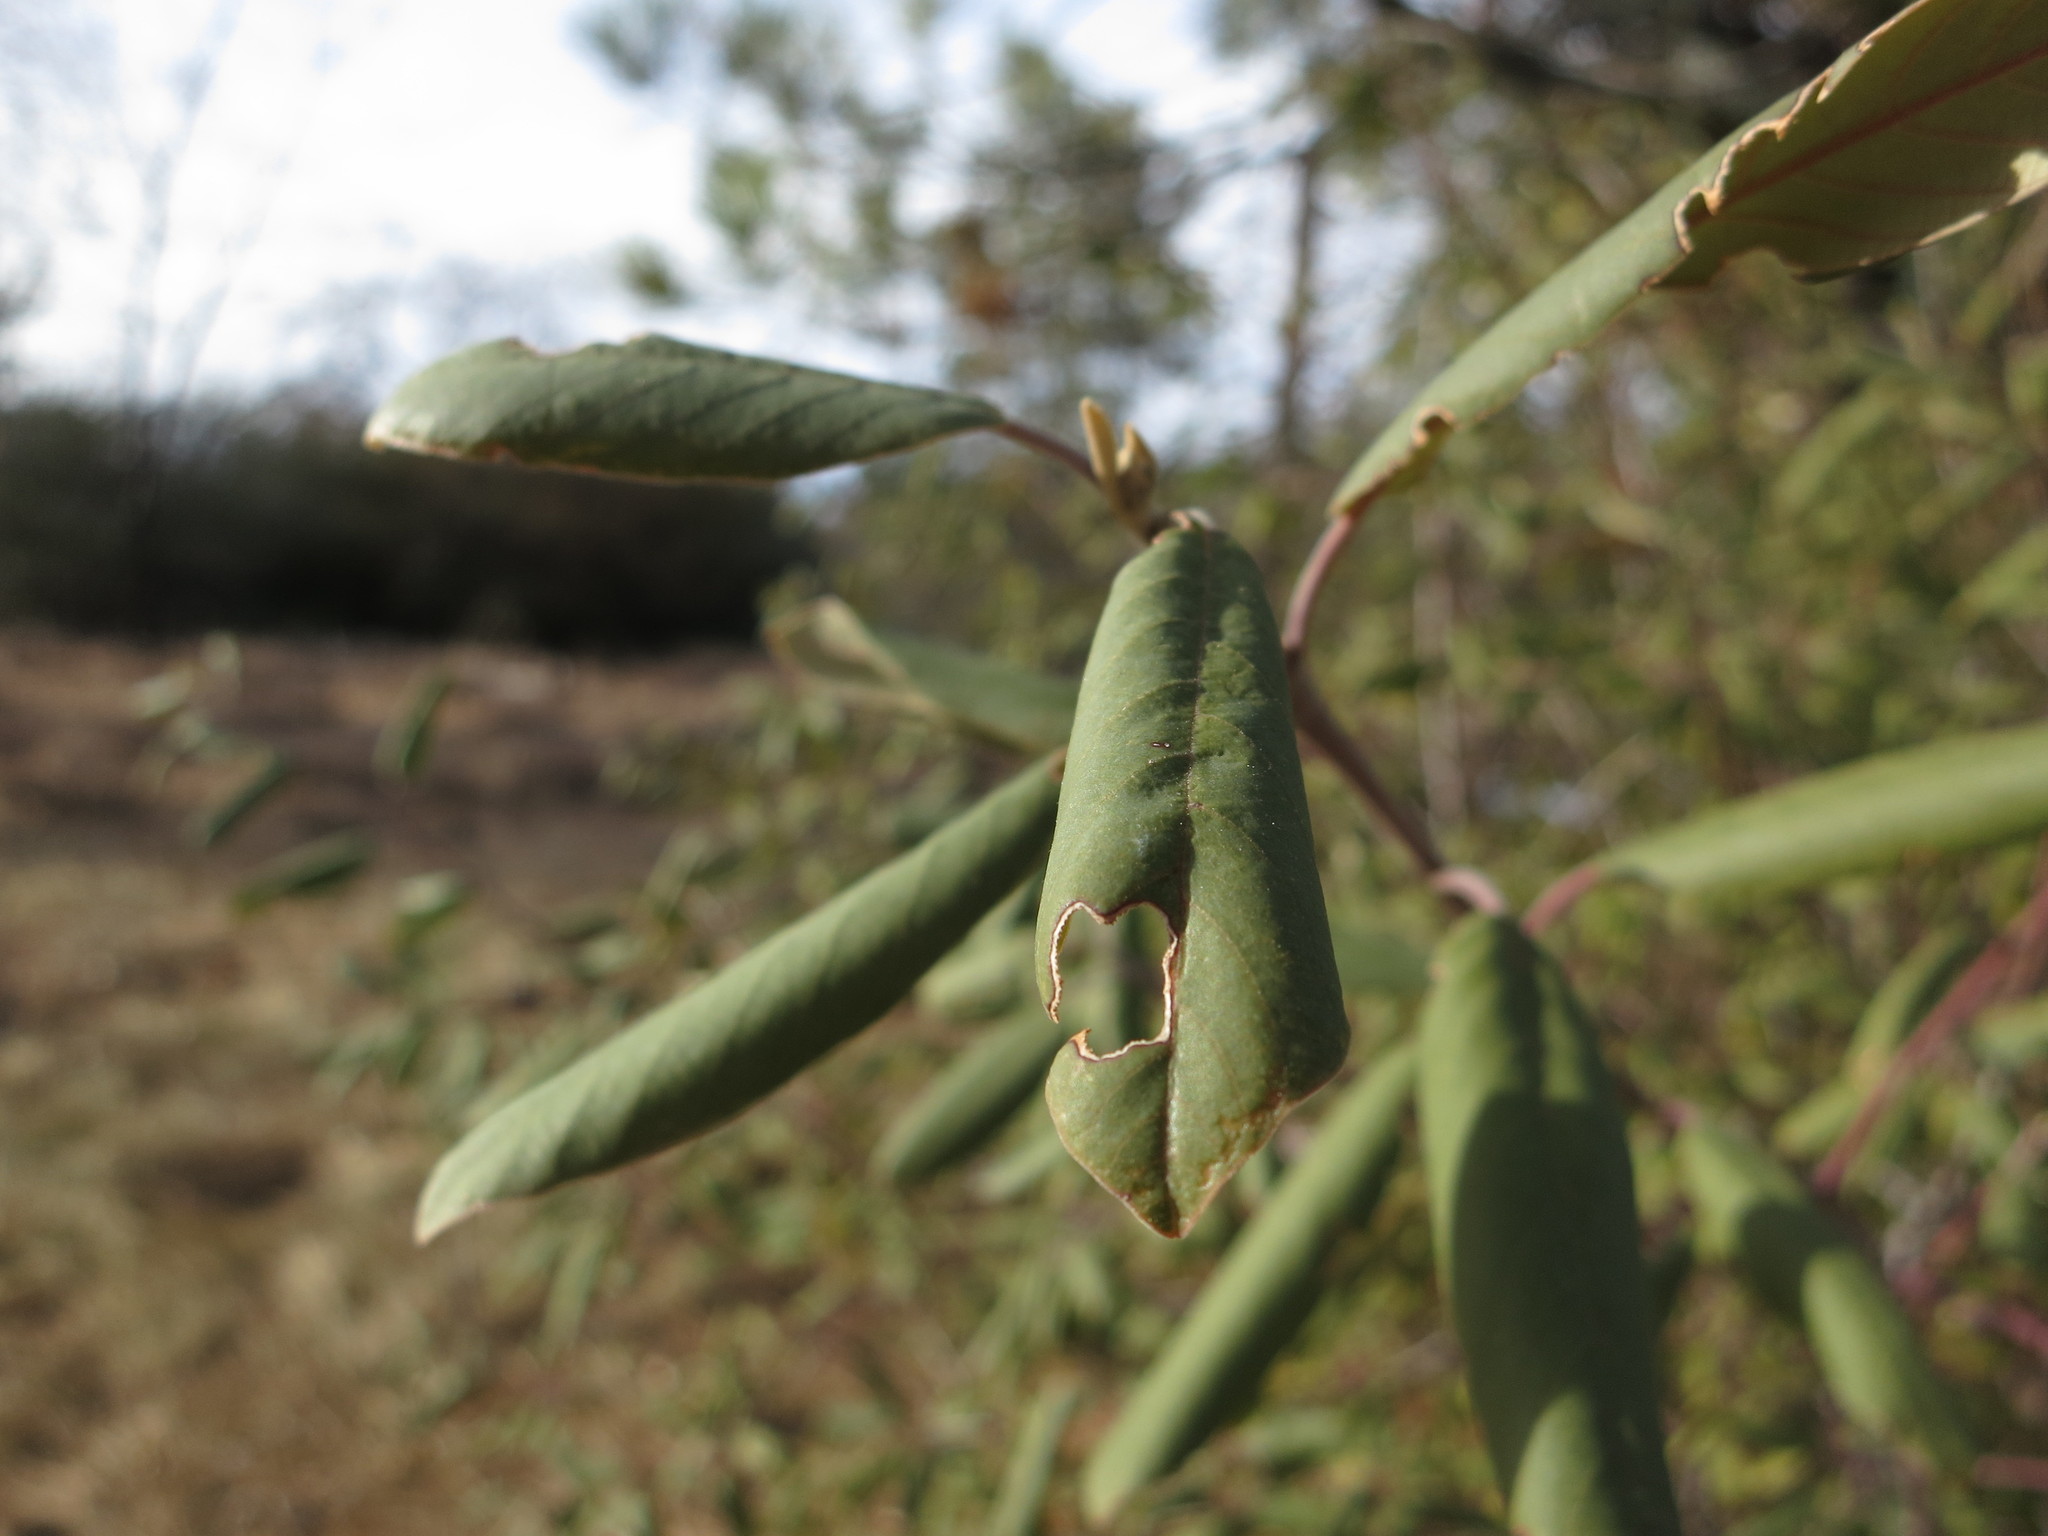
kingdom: Plantae
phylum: Tracheophyta
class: Magnoliopsida
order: Rosales
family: Rhamnaceae
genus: Frangula
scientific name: Frangula californica
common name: California buckthorn
